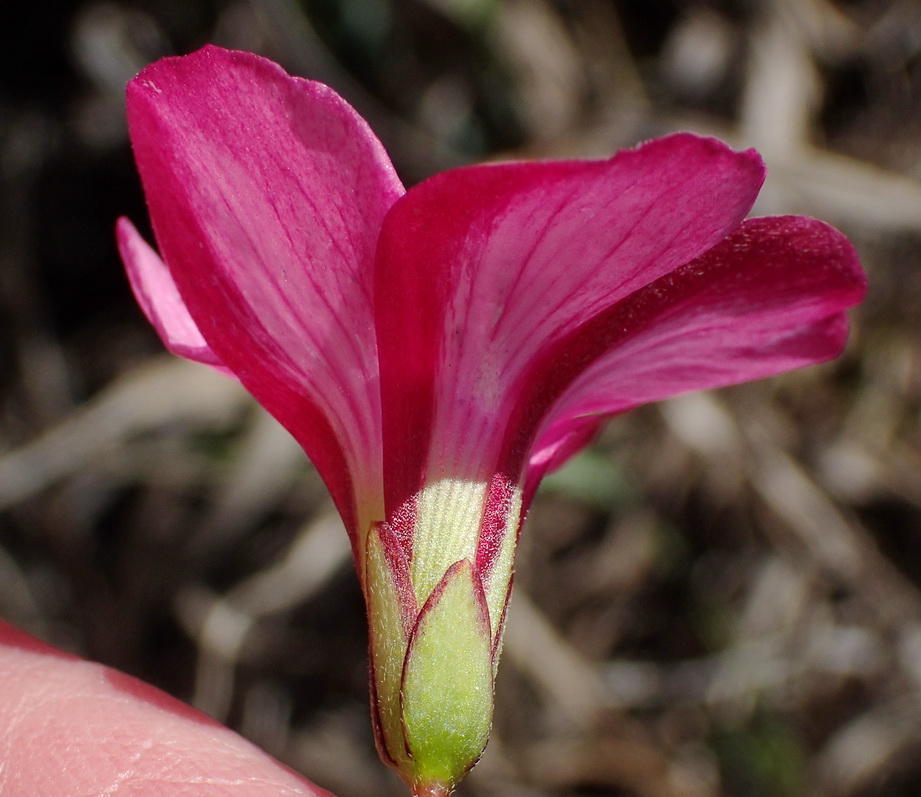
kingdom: Plantae
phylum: Tracheophyta
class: Magnoliopsida
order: Oxalidales
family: Oxalidaceae
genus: Oxalis
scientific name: Oxalis pendulifolia
